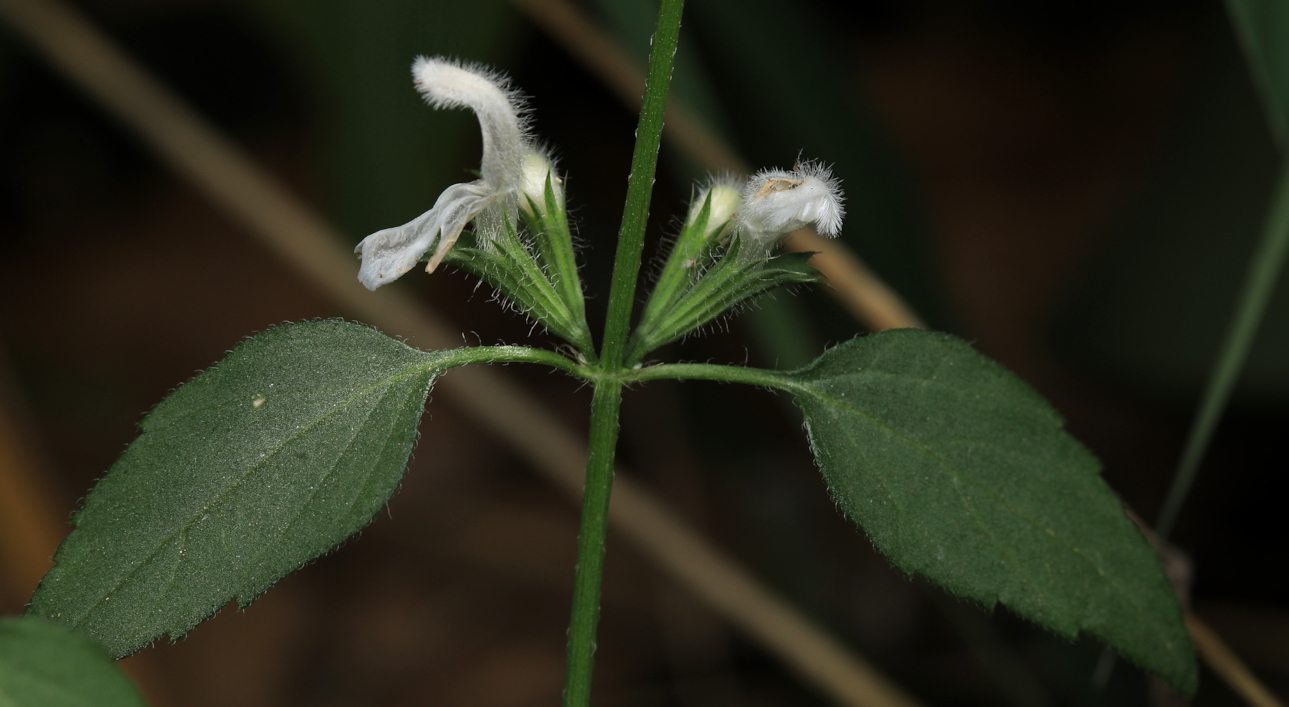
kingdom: Plantae
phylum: Tracheophyta
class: Magnoliopsida
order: Lamiales
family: Lamiaceae
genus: Leucas
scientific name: Leucas glabrata
